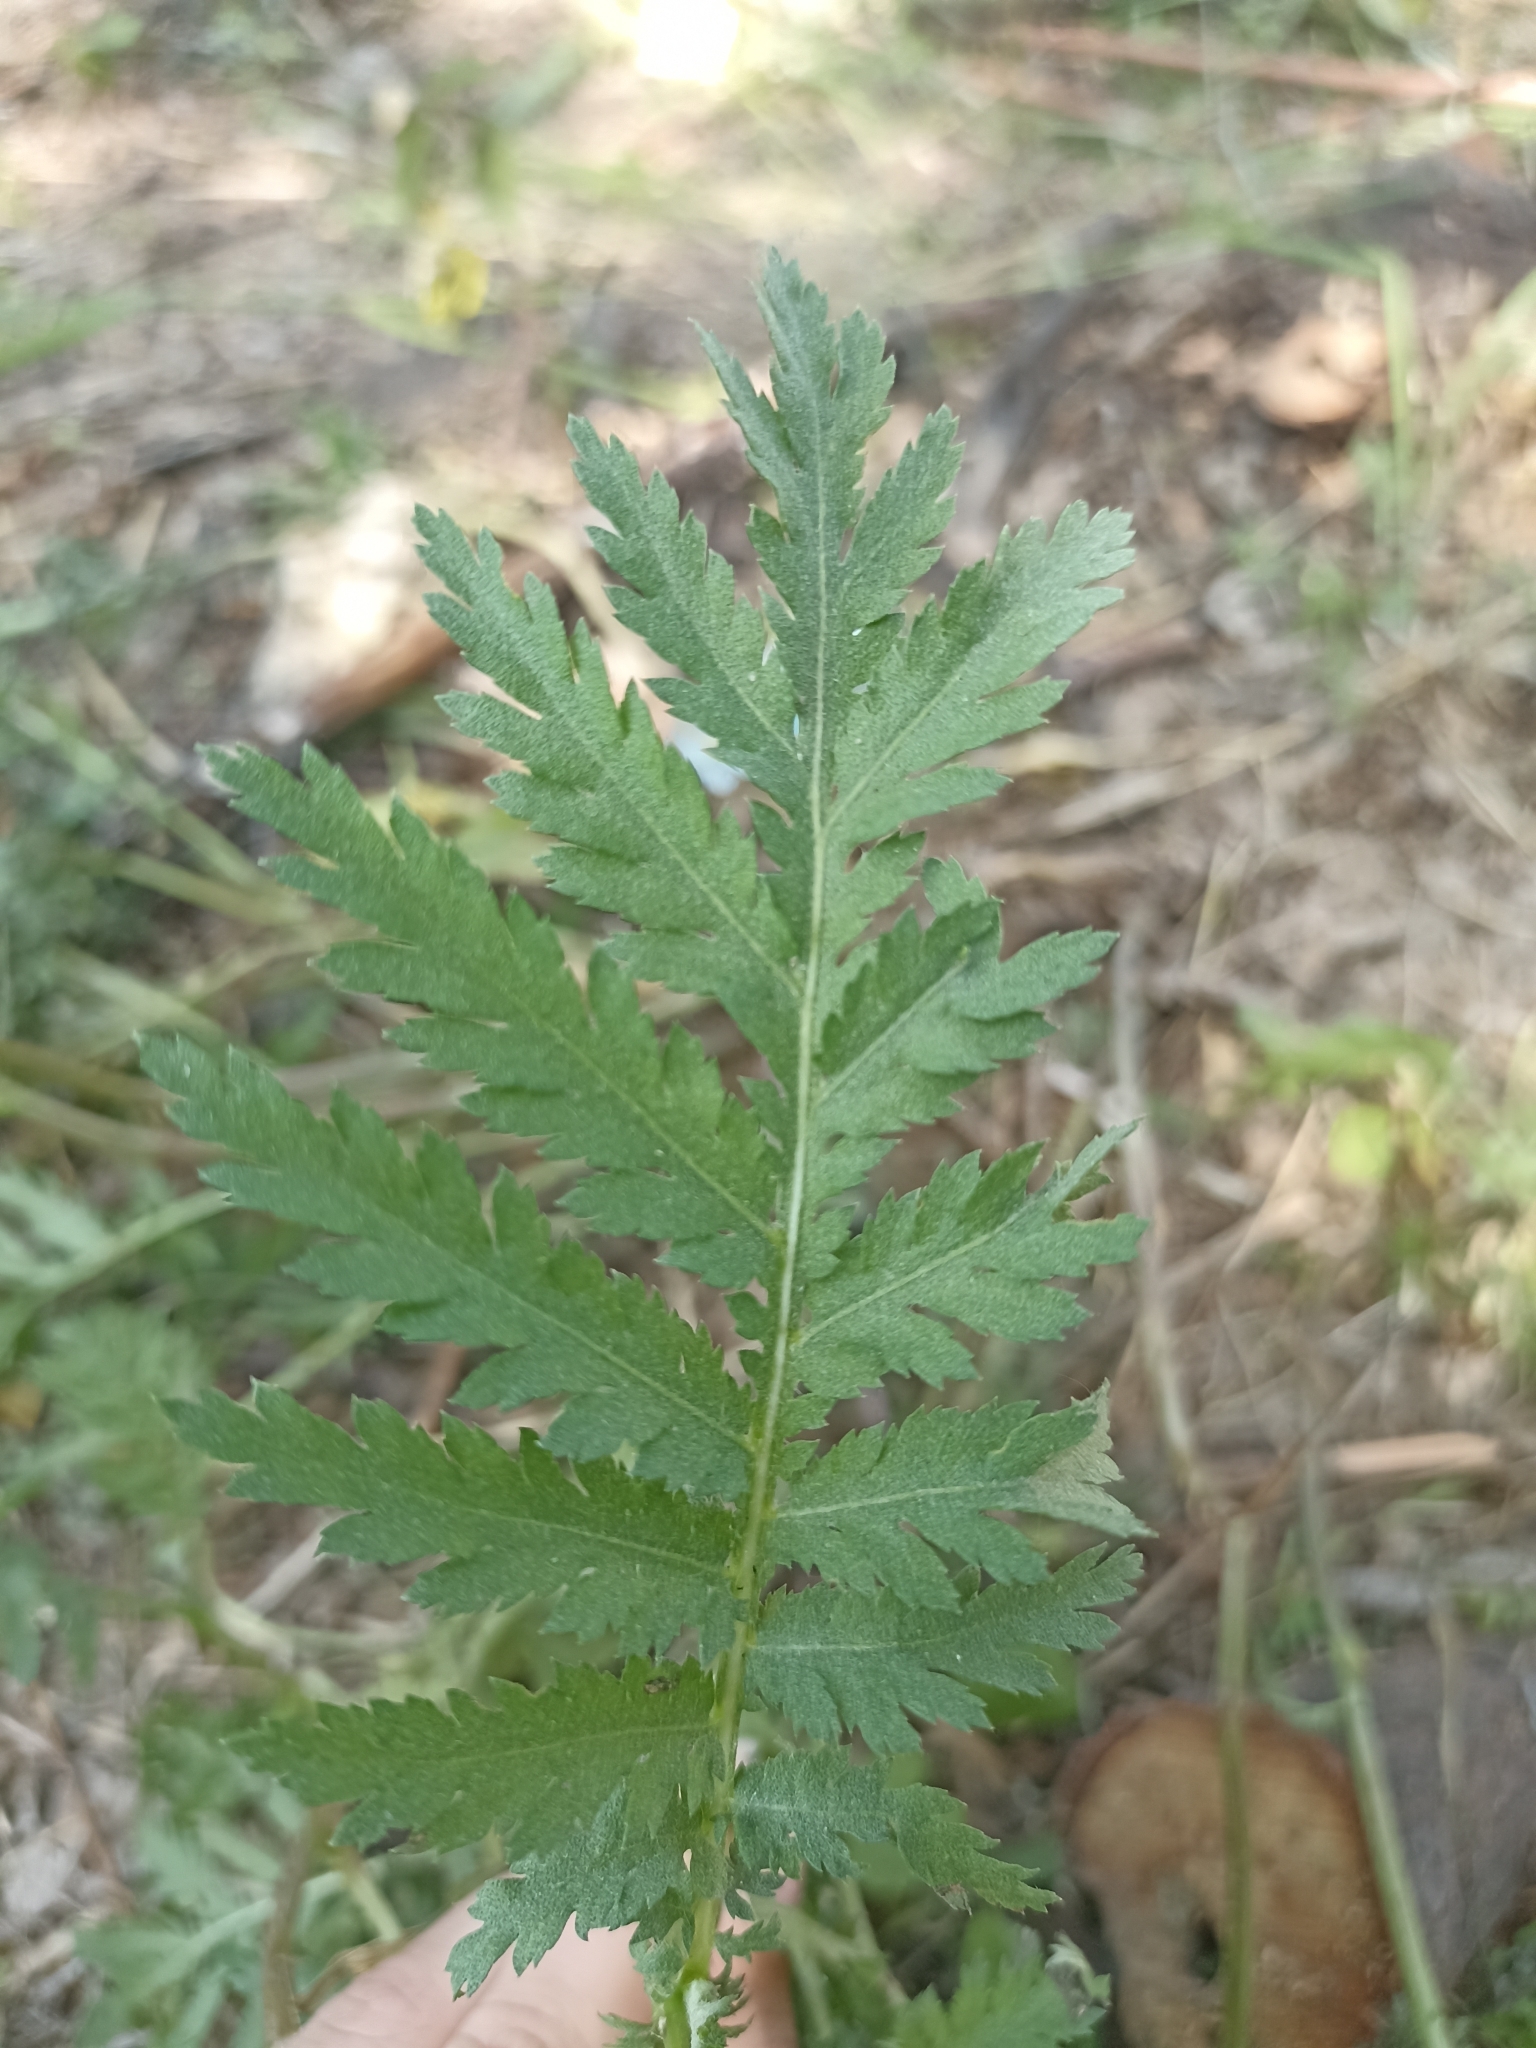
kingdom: Plantae
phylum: Tracheophyta
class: Magnoliopsida
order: Asterales
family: Asteraceae
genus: Tanacetum
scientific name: Tanacetum vulgare
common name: Common tansy
